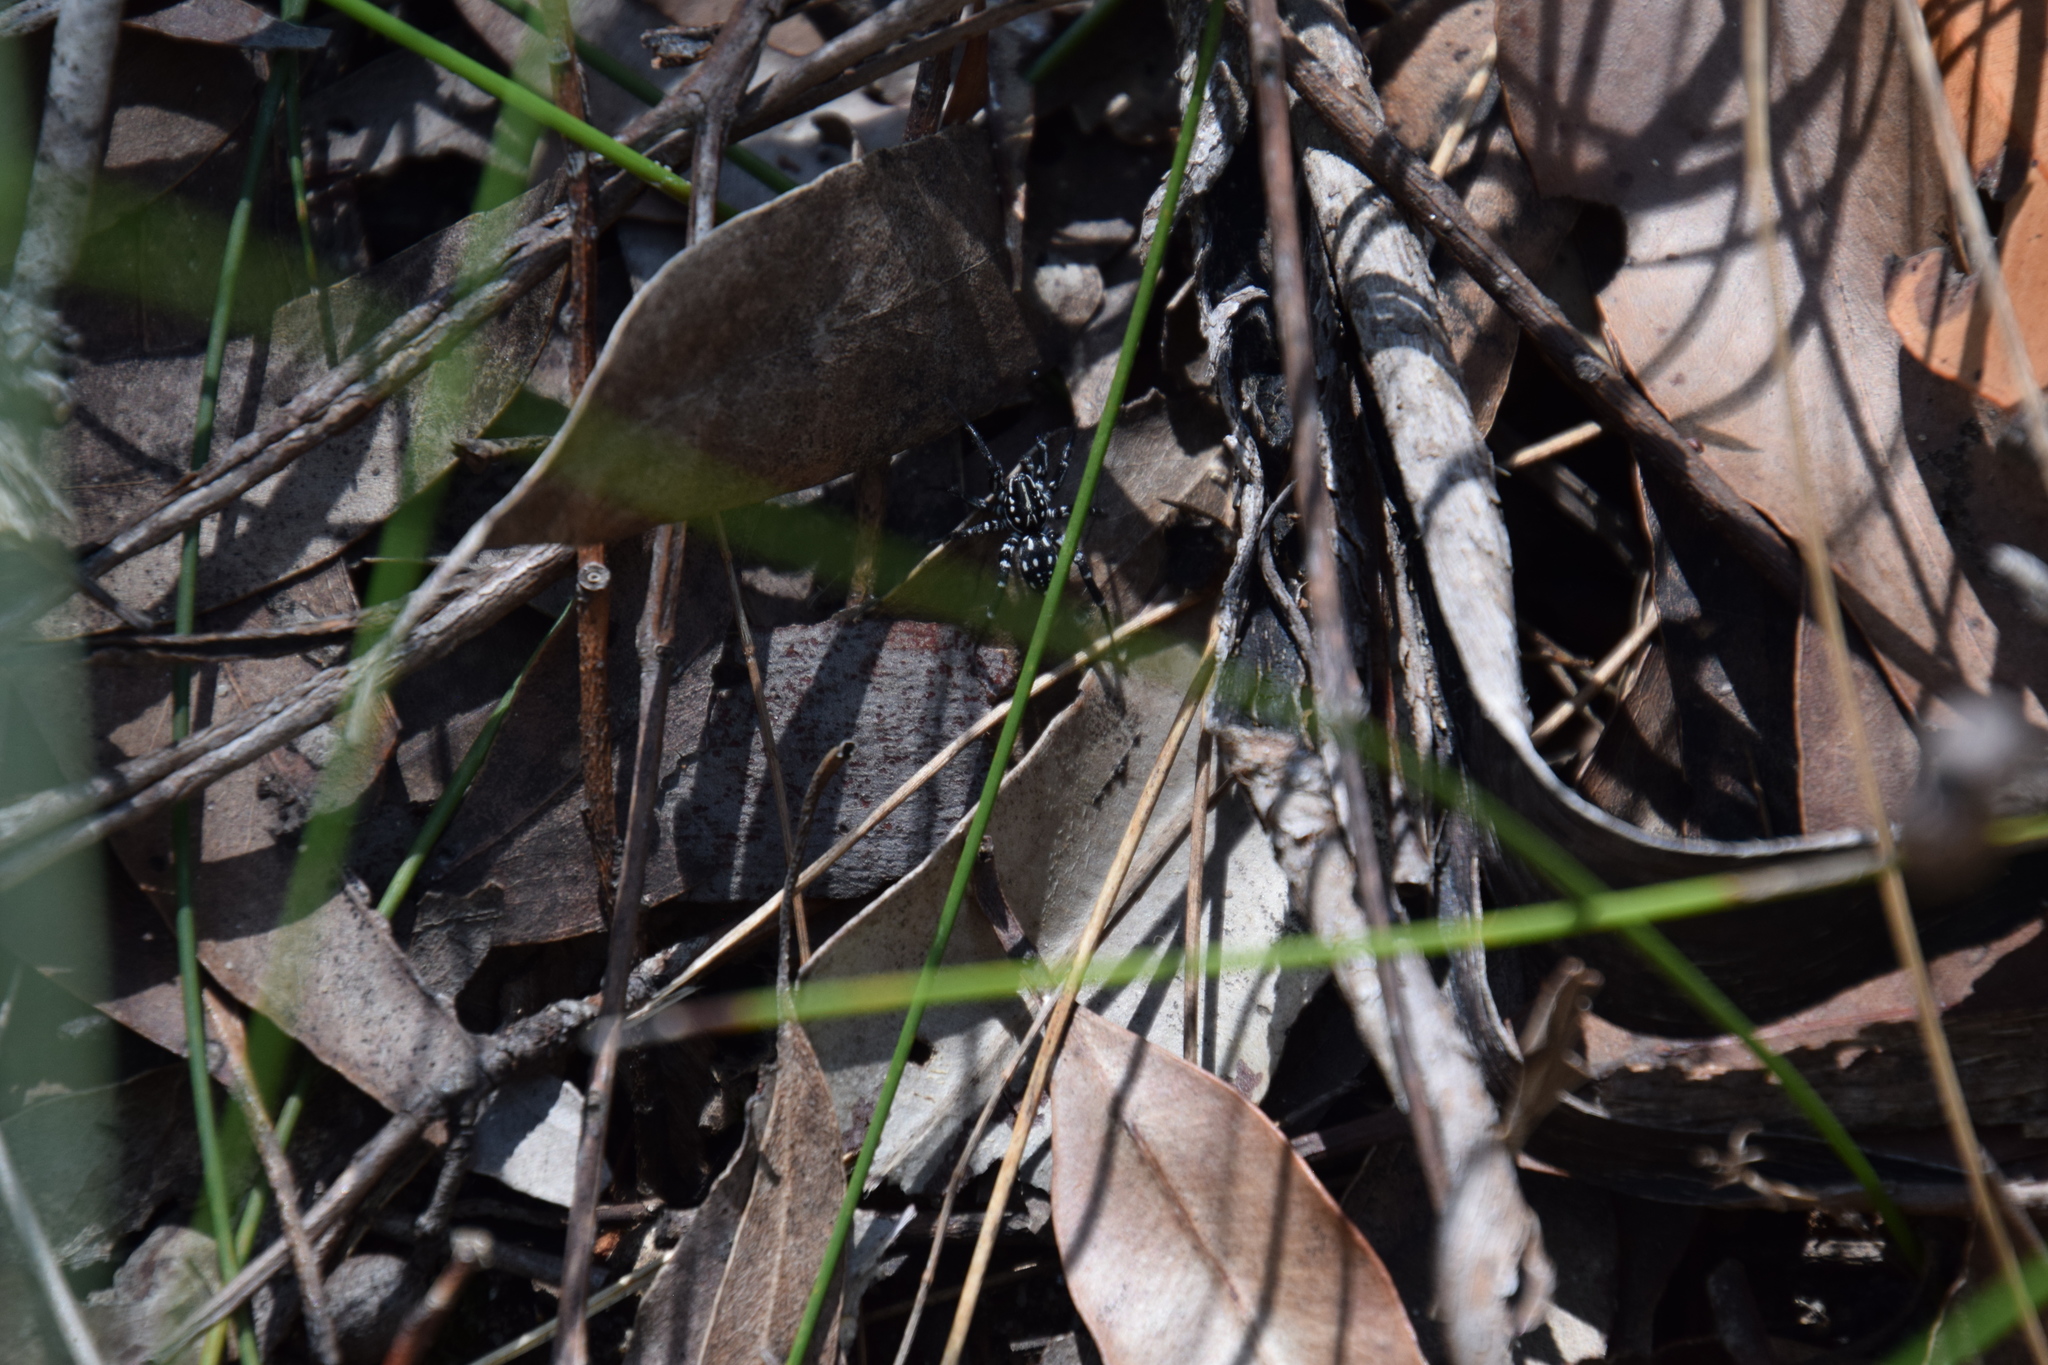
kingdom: Animalia
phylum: Arthropoda
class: Arachnida
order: Araneae
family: Corinnidae
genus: Nyssus
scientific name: Nyssus albopunctatus
